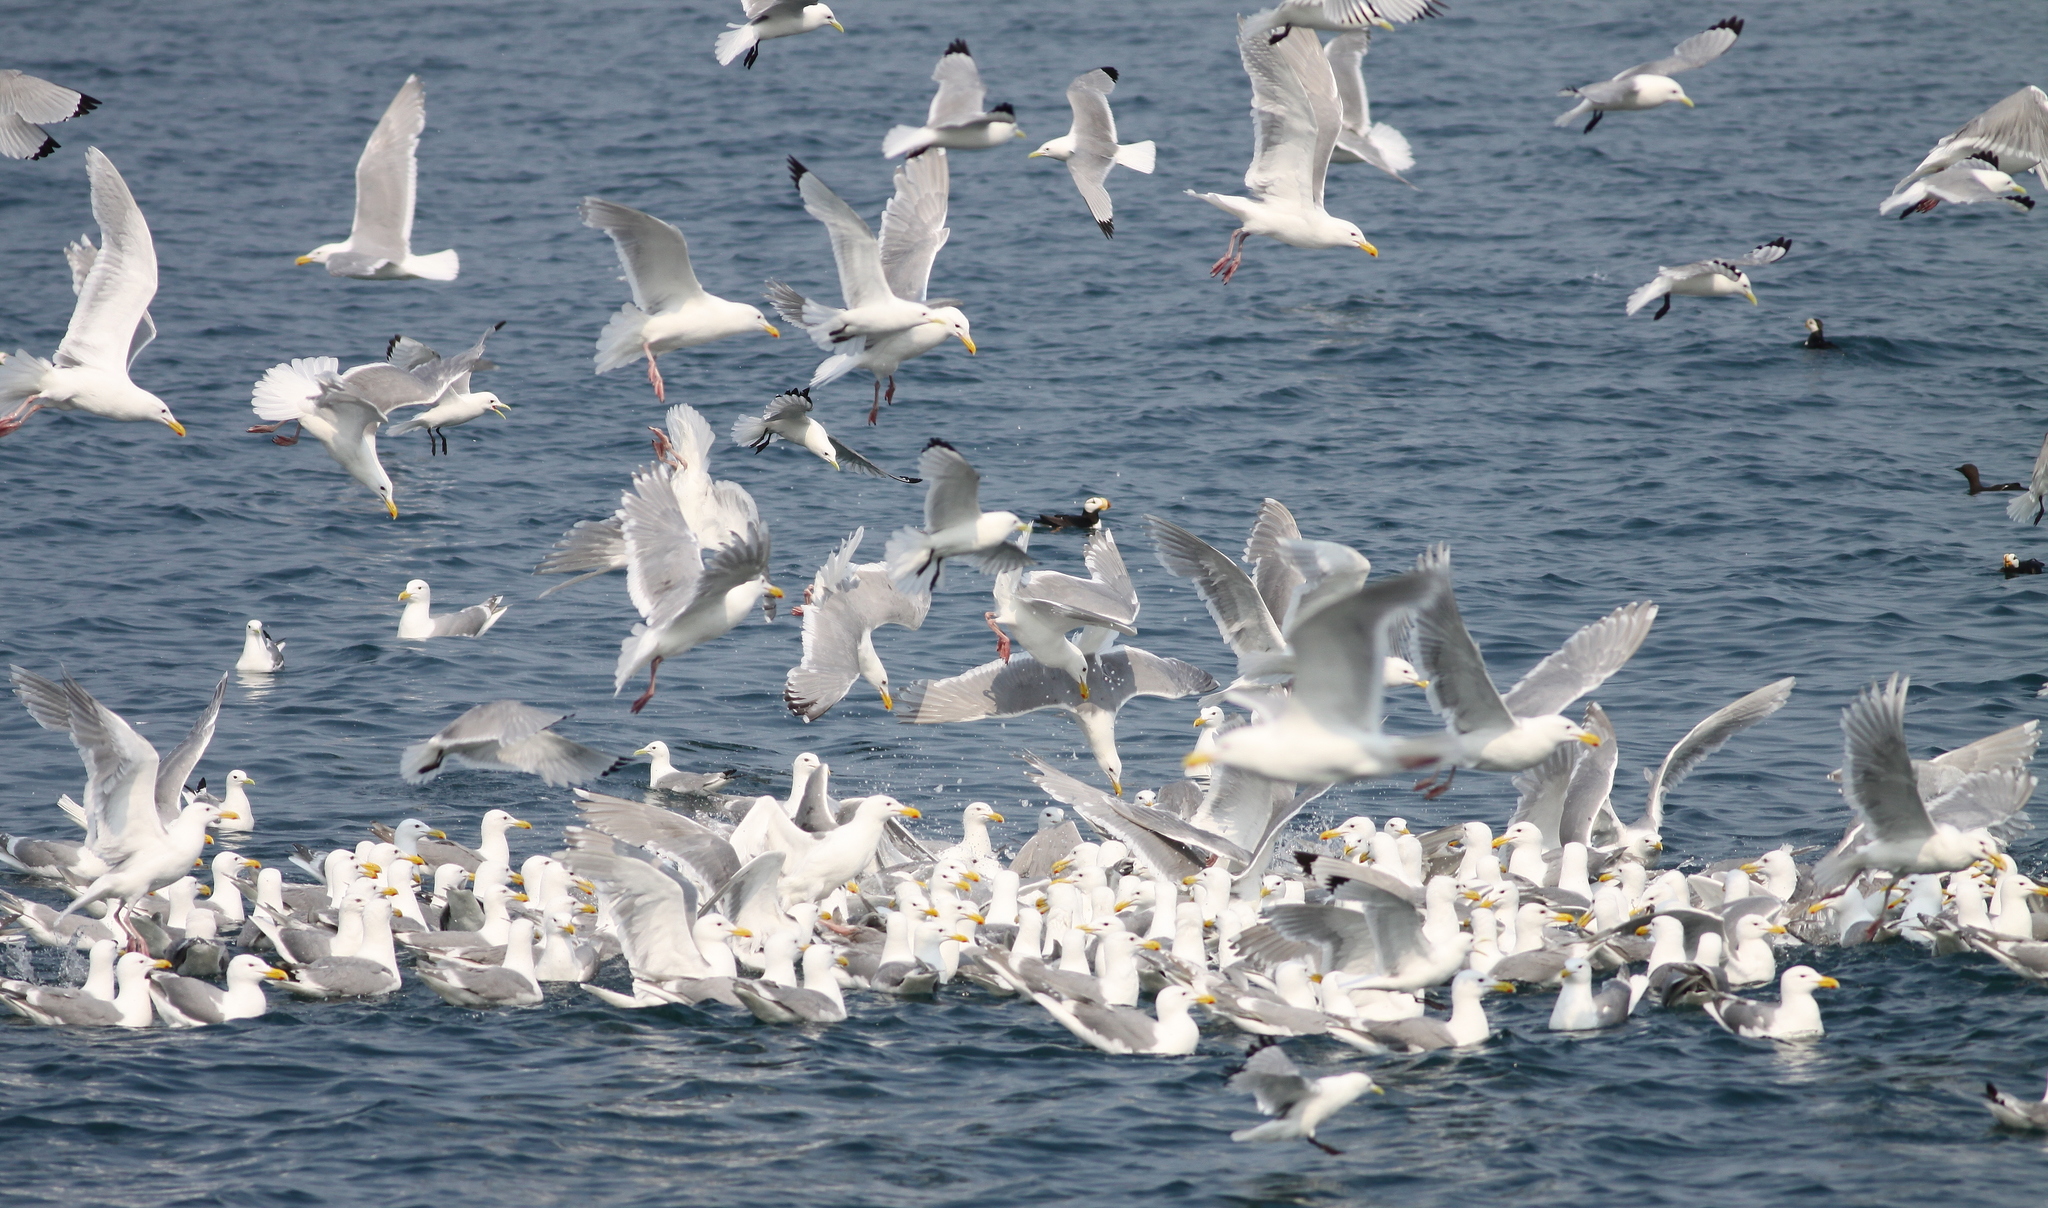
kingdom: Animalia
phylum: Chordata
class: Aves
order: Charadriiformes
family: Laridae
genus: Larus
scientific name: Larus glaucescens
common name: Glaucous-winged gull
